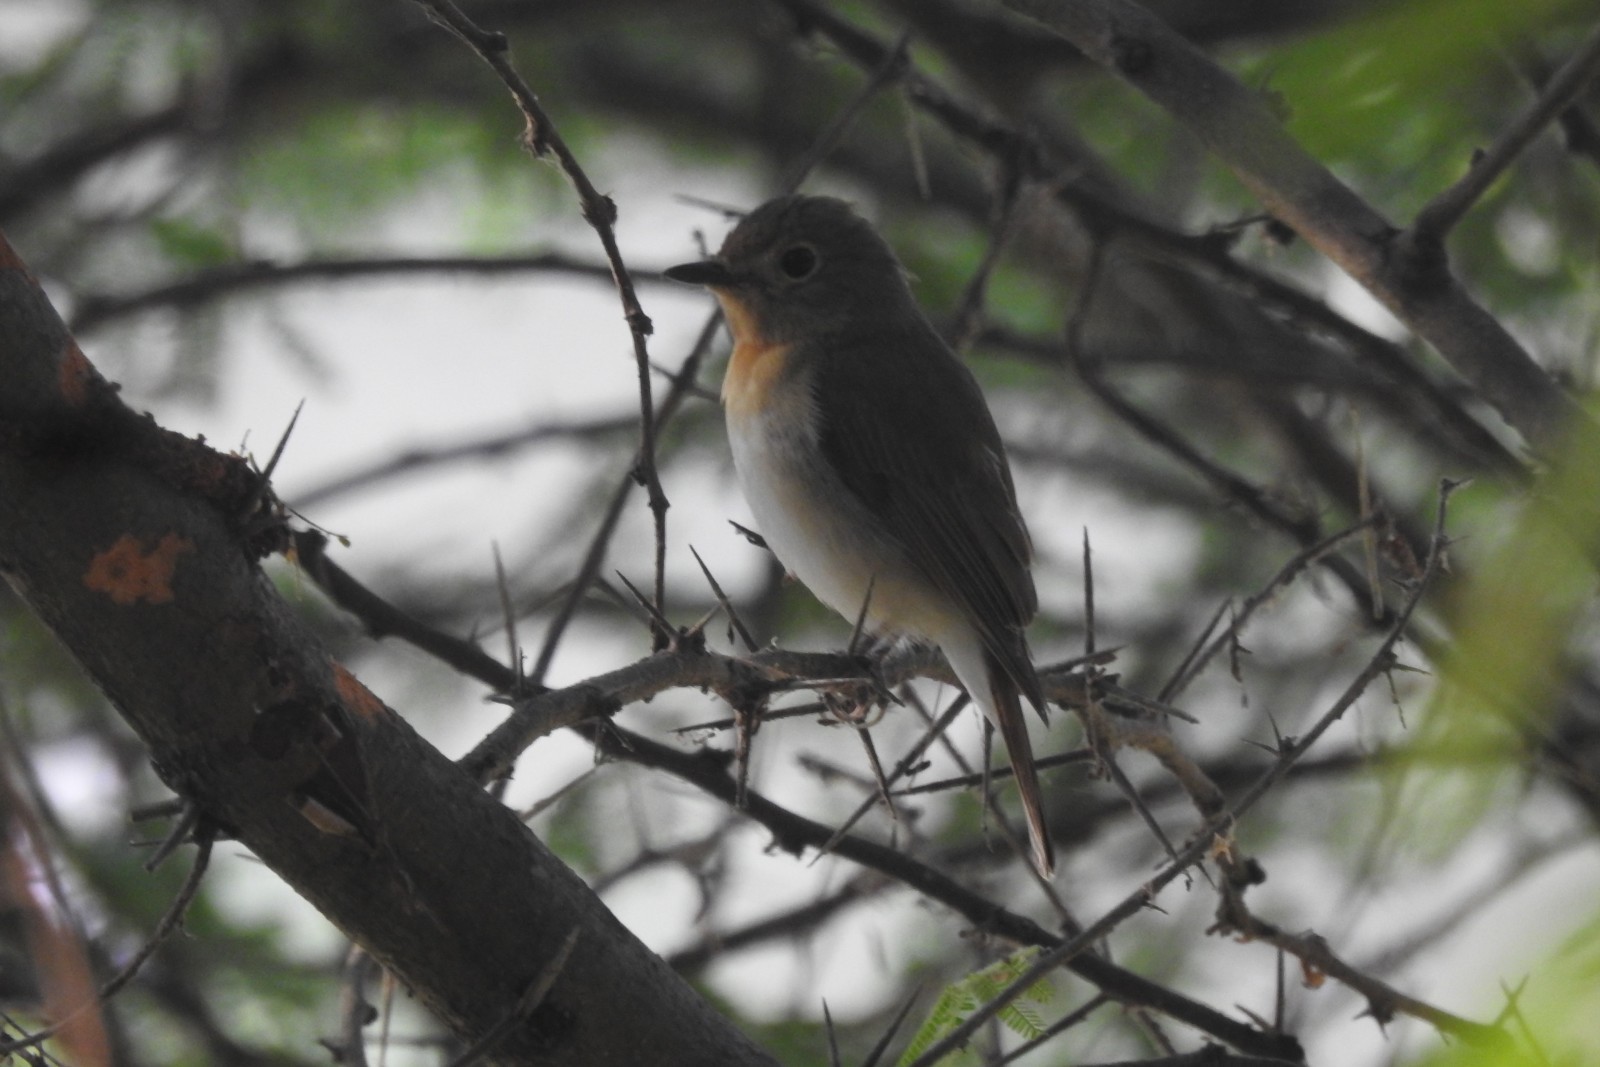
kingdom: Animalia
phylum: Chordata
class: Aves
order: Passeriformes
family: Muscicapidae
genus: Cyornis
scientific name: Cyornis rubeculoides
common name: Blue-throated blue flycatcher
